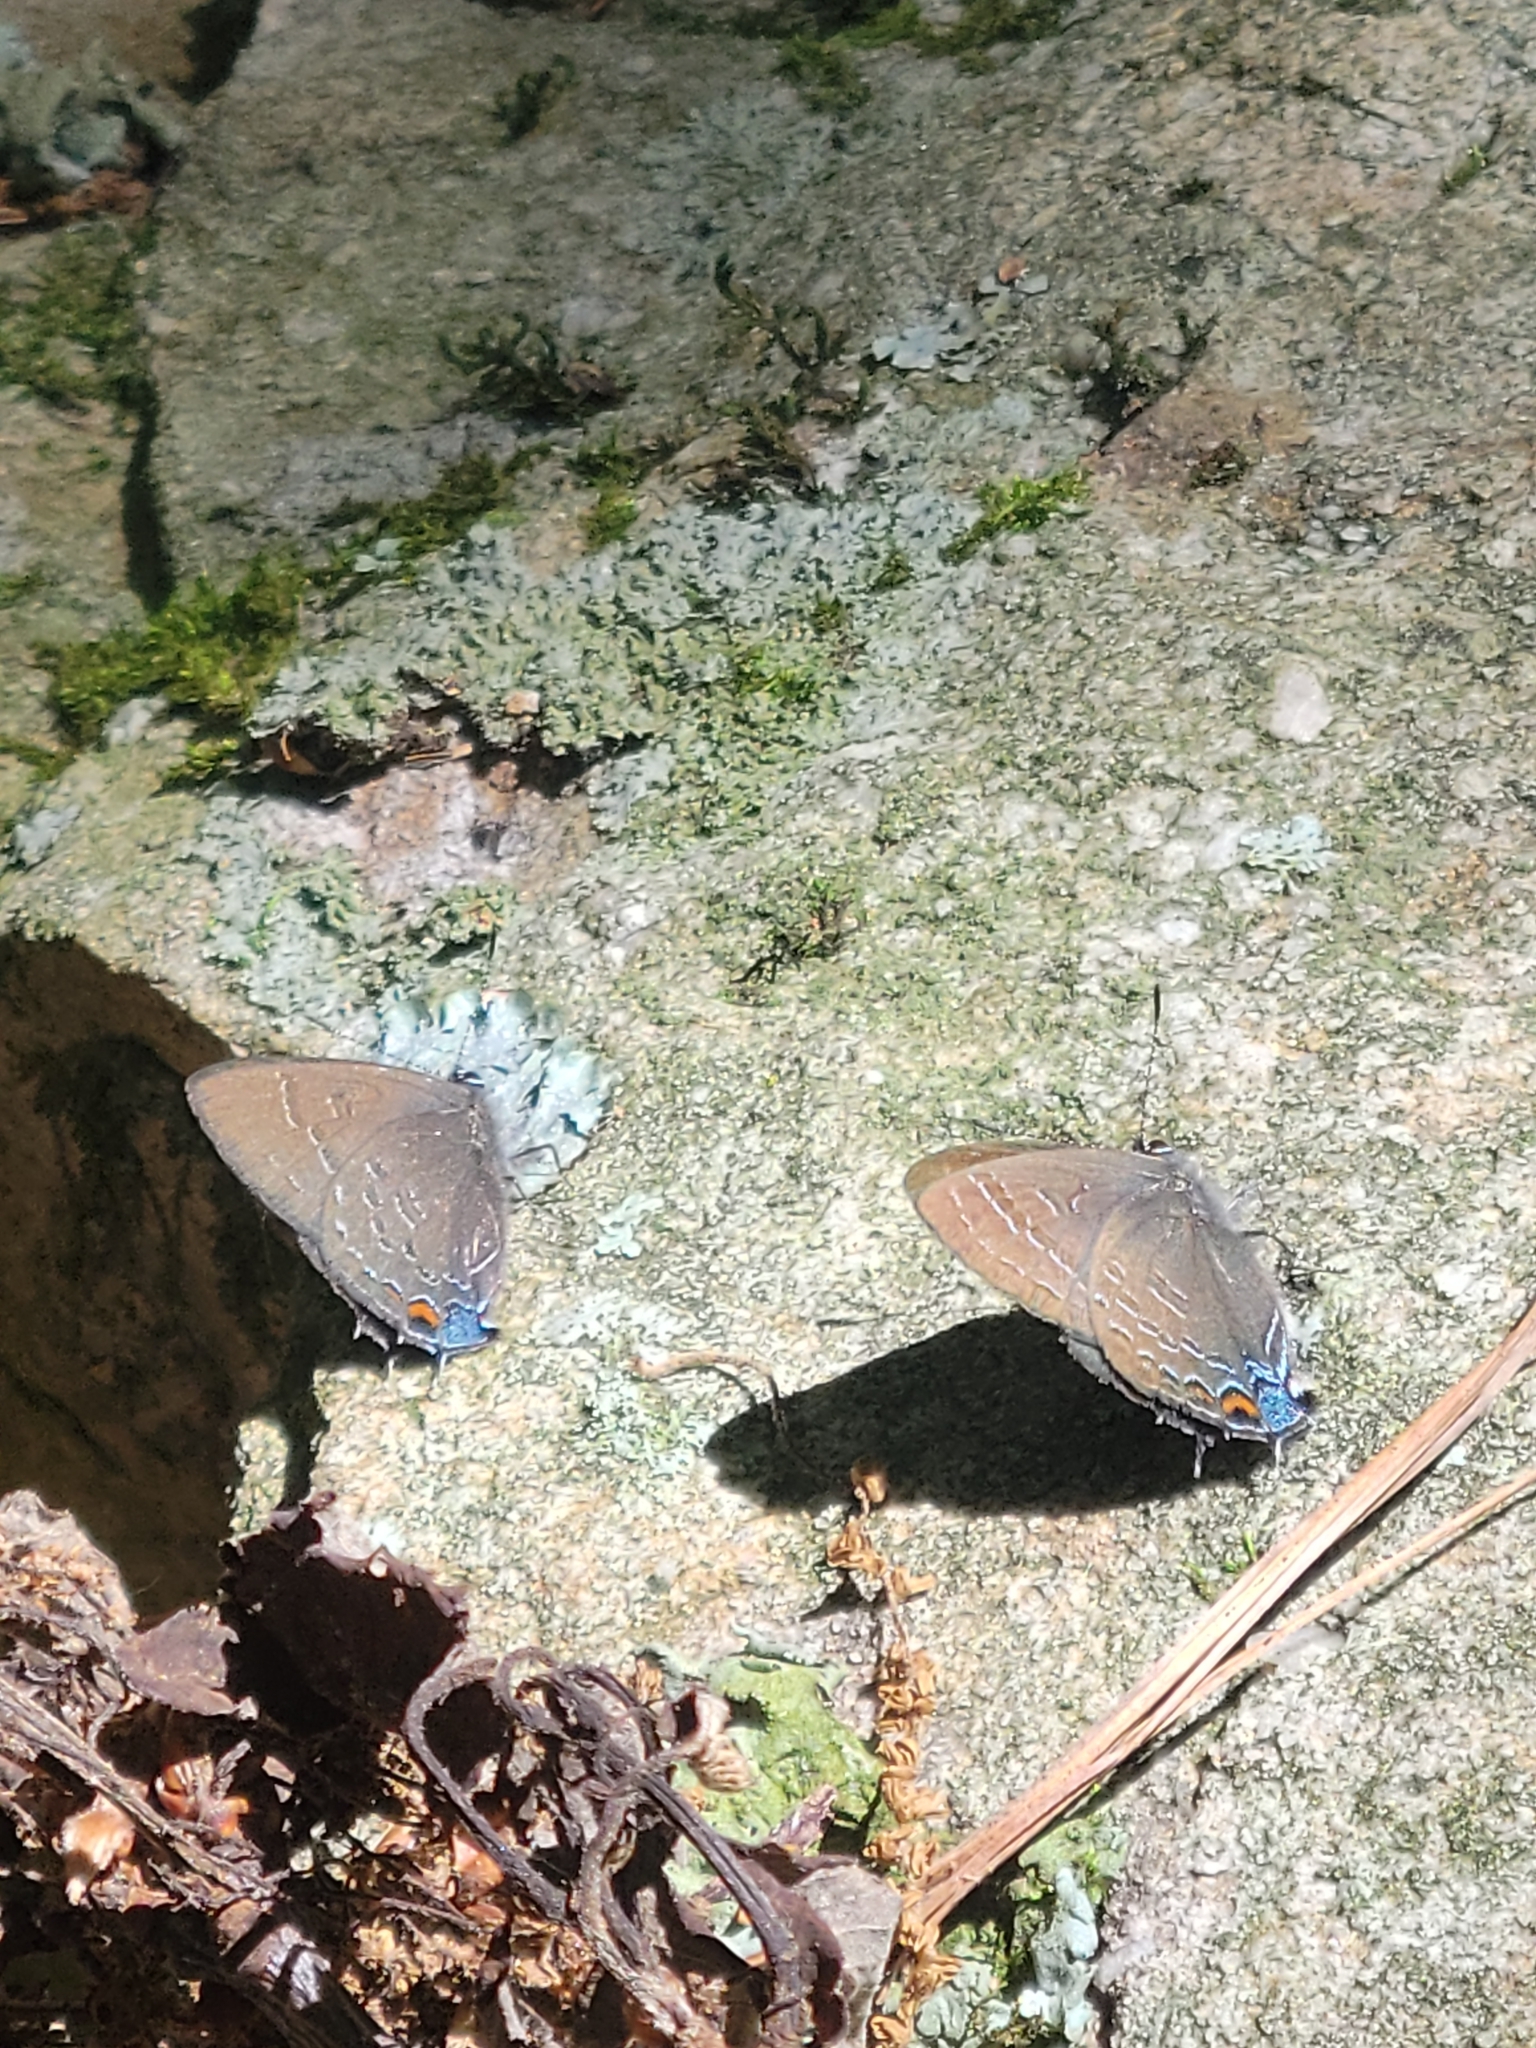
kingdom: Animalia
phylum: Arthropoda
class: Insecta
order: Lepidoptera
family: Lycaenidae
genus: Satyrium
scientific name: Satyrium calanus
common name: Banded hairstreak
